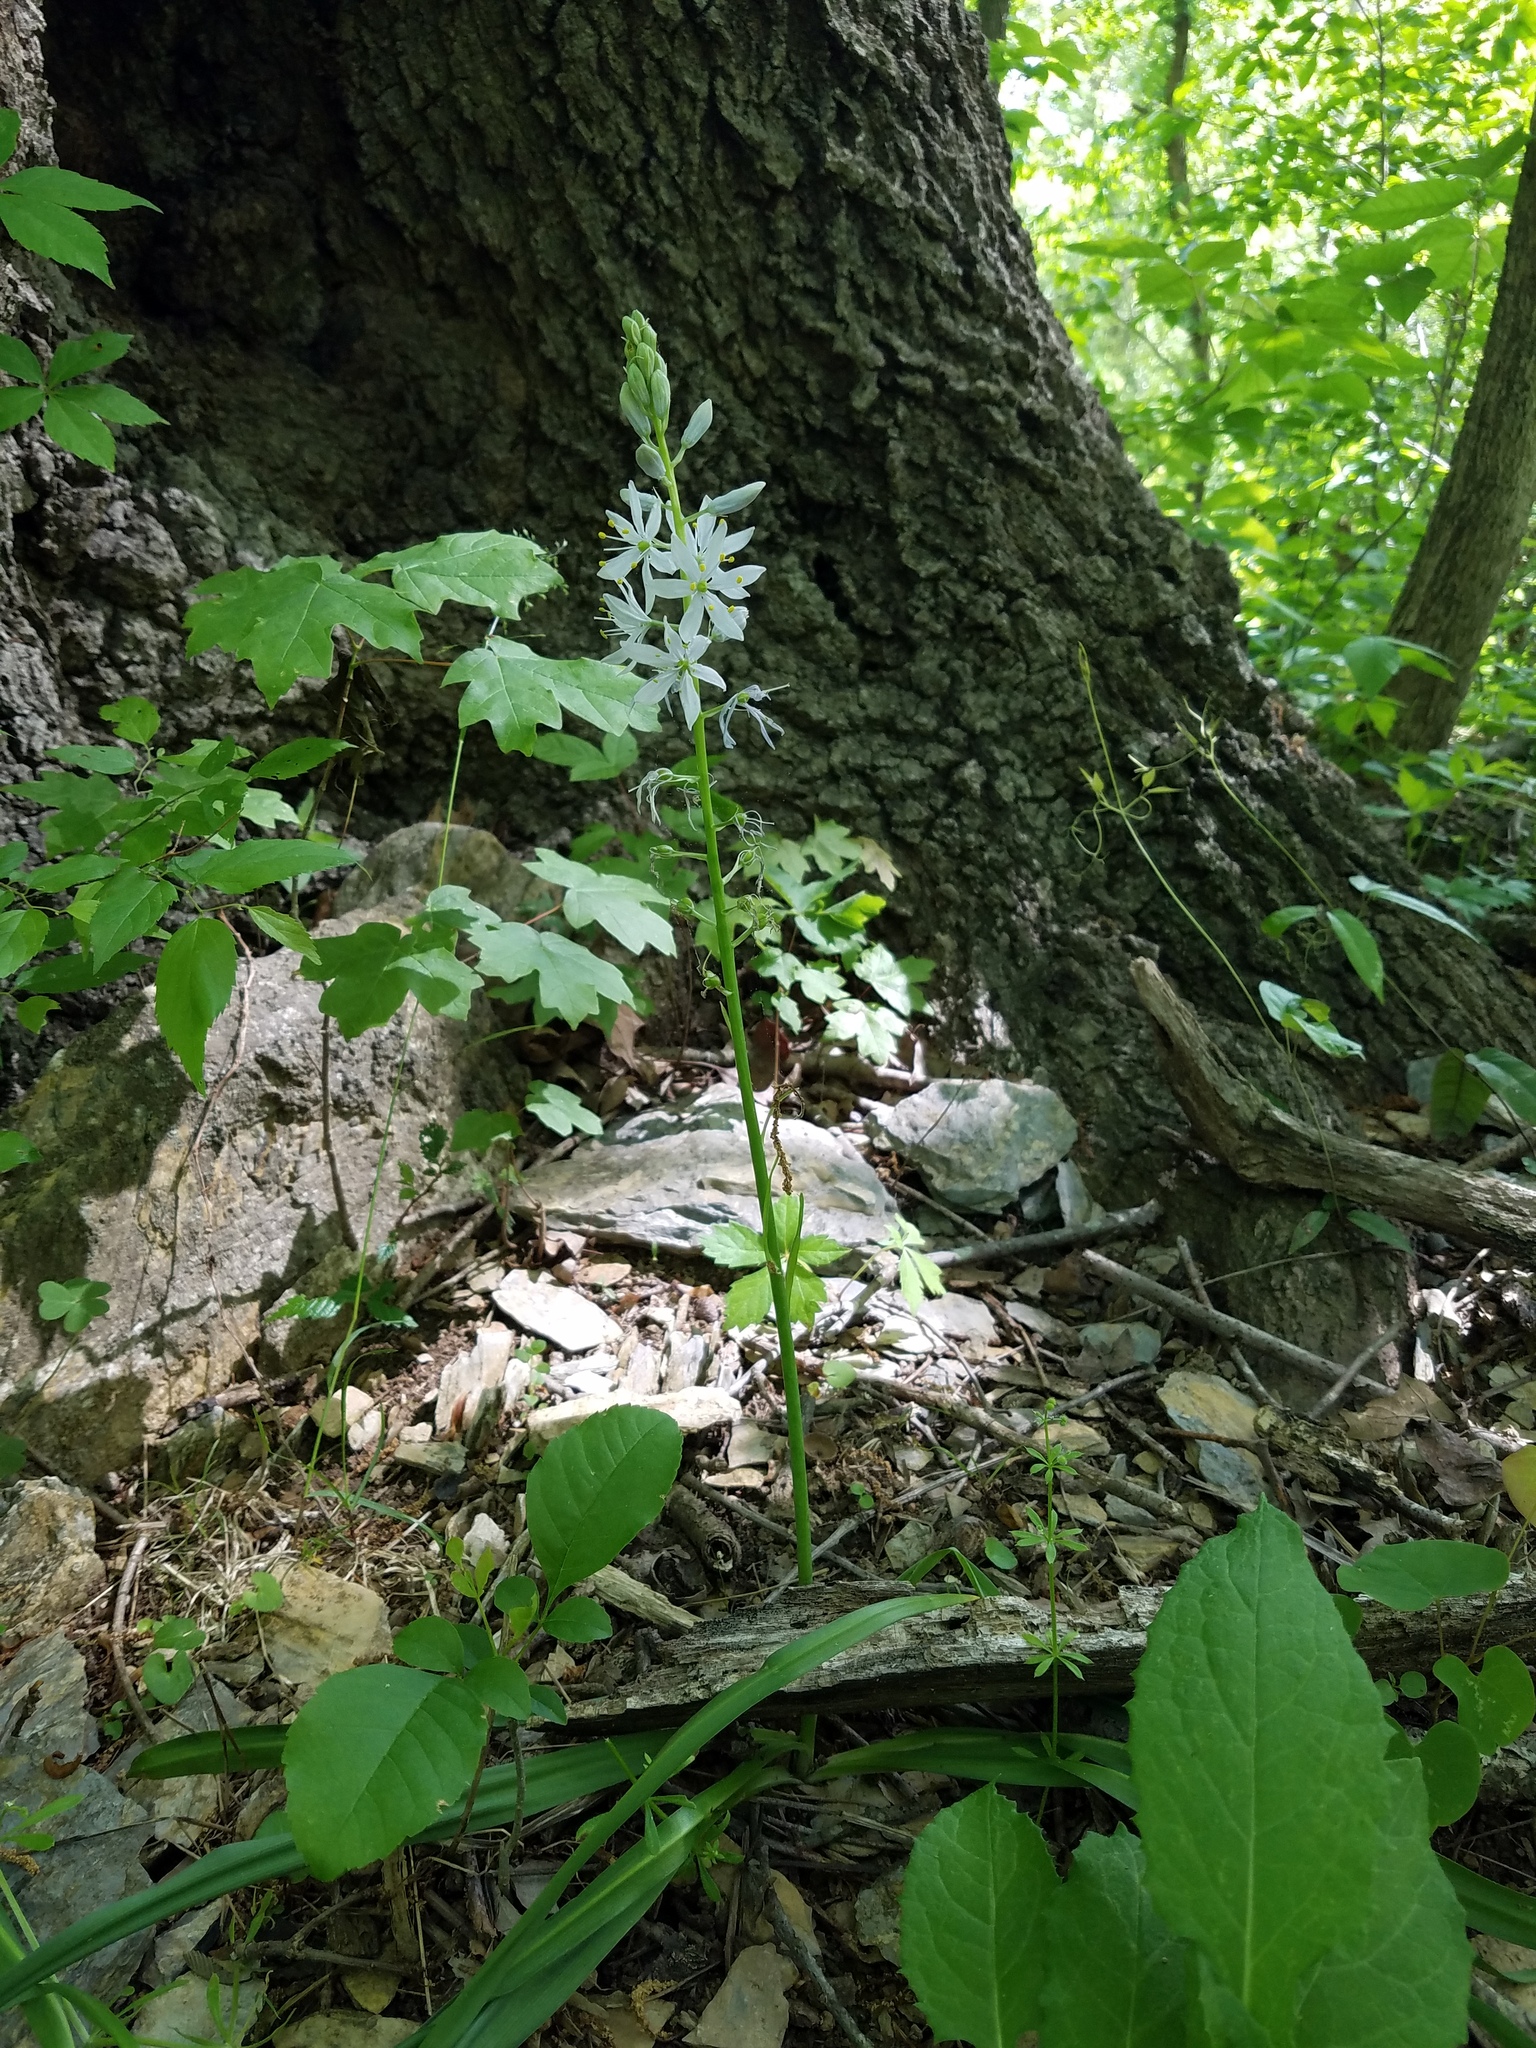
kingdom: Plantae
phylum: Tracheophyta
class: Liliopsida
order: Asparagales
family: Asparagaceae
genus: Camassia
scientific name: Camassia scilloides
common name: Wild hyacinth
